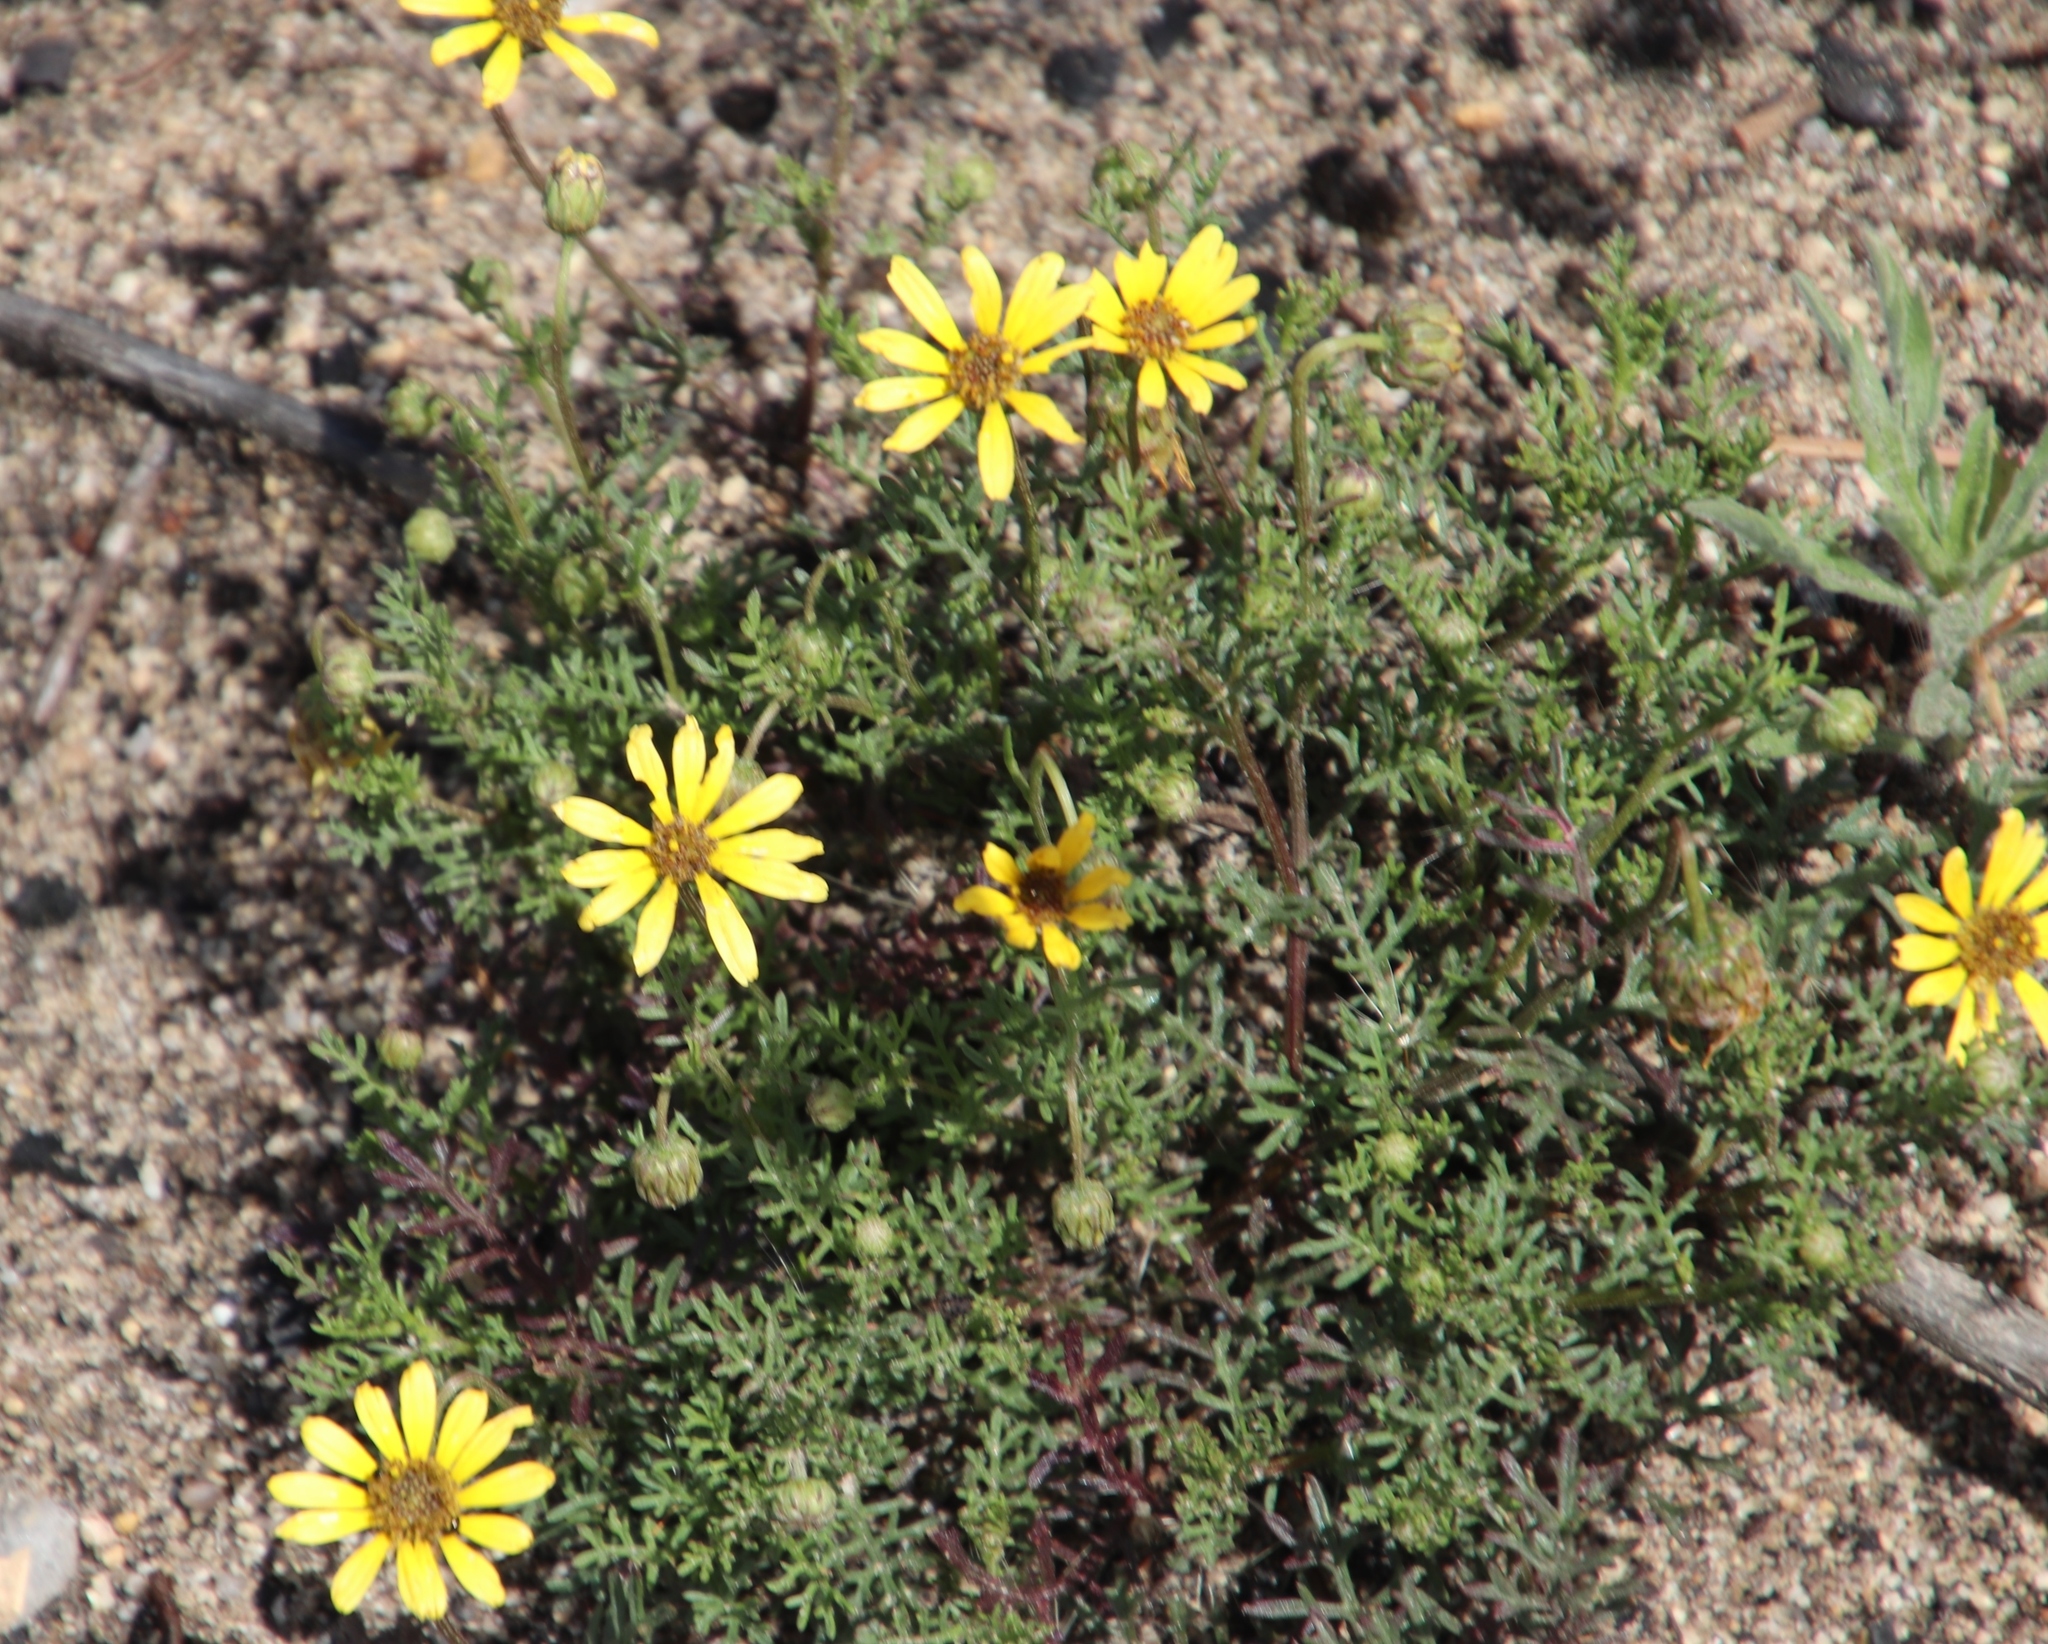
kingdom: Plantae
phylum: Tracheophyta
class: Magnoliopsida
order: Asterales
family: Asteraceae
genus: Ursinia
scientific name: Ursinia paleacea
